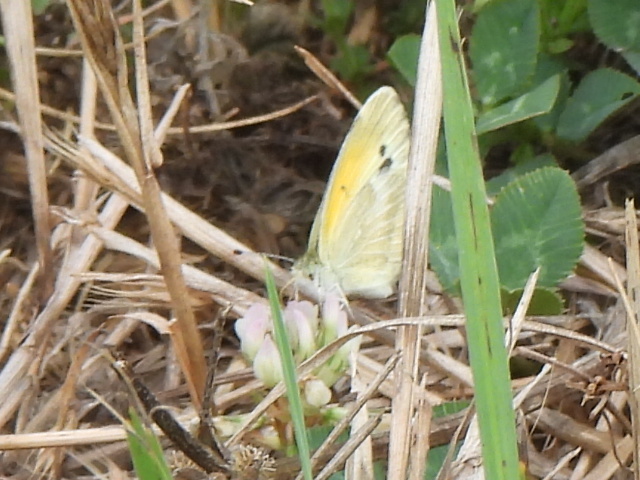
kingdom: Animalia
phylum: Arthropoda
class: Insecta
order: Lepidoptera
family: Pieridae
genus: Nathalis
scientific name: Nathalis iole
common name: Dainty sulphur
